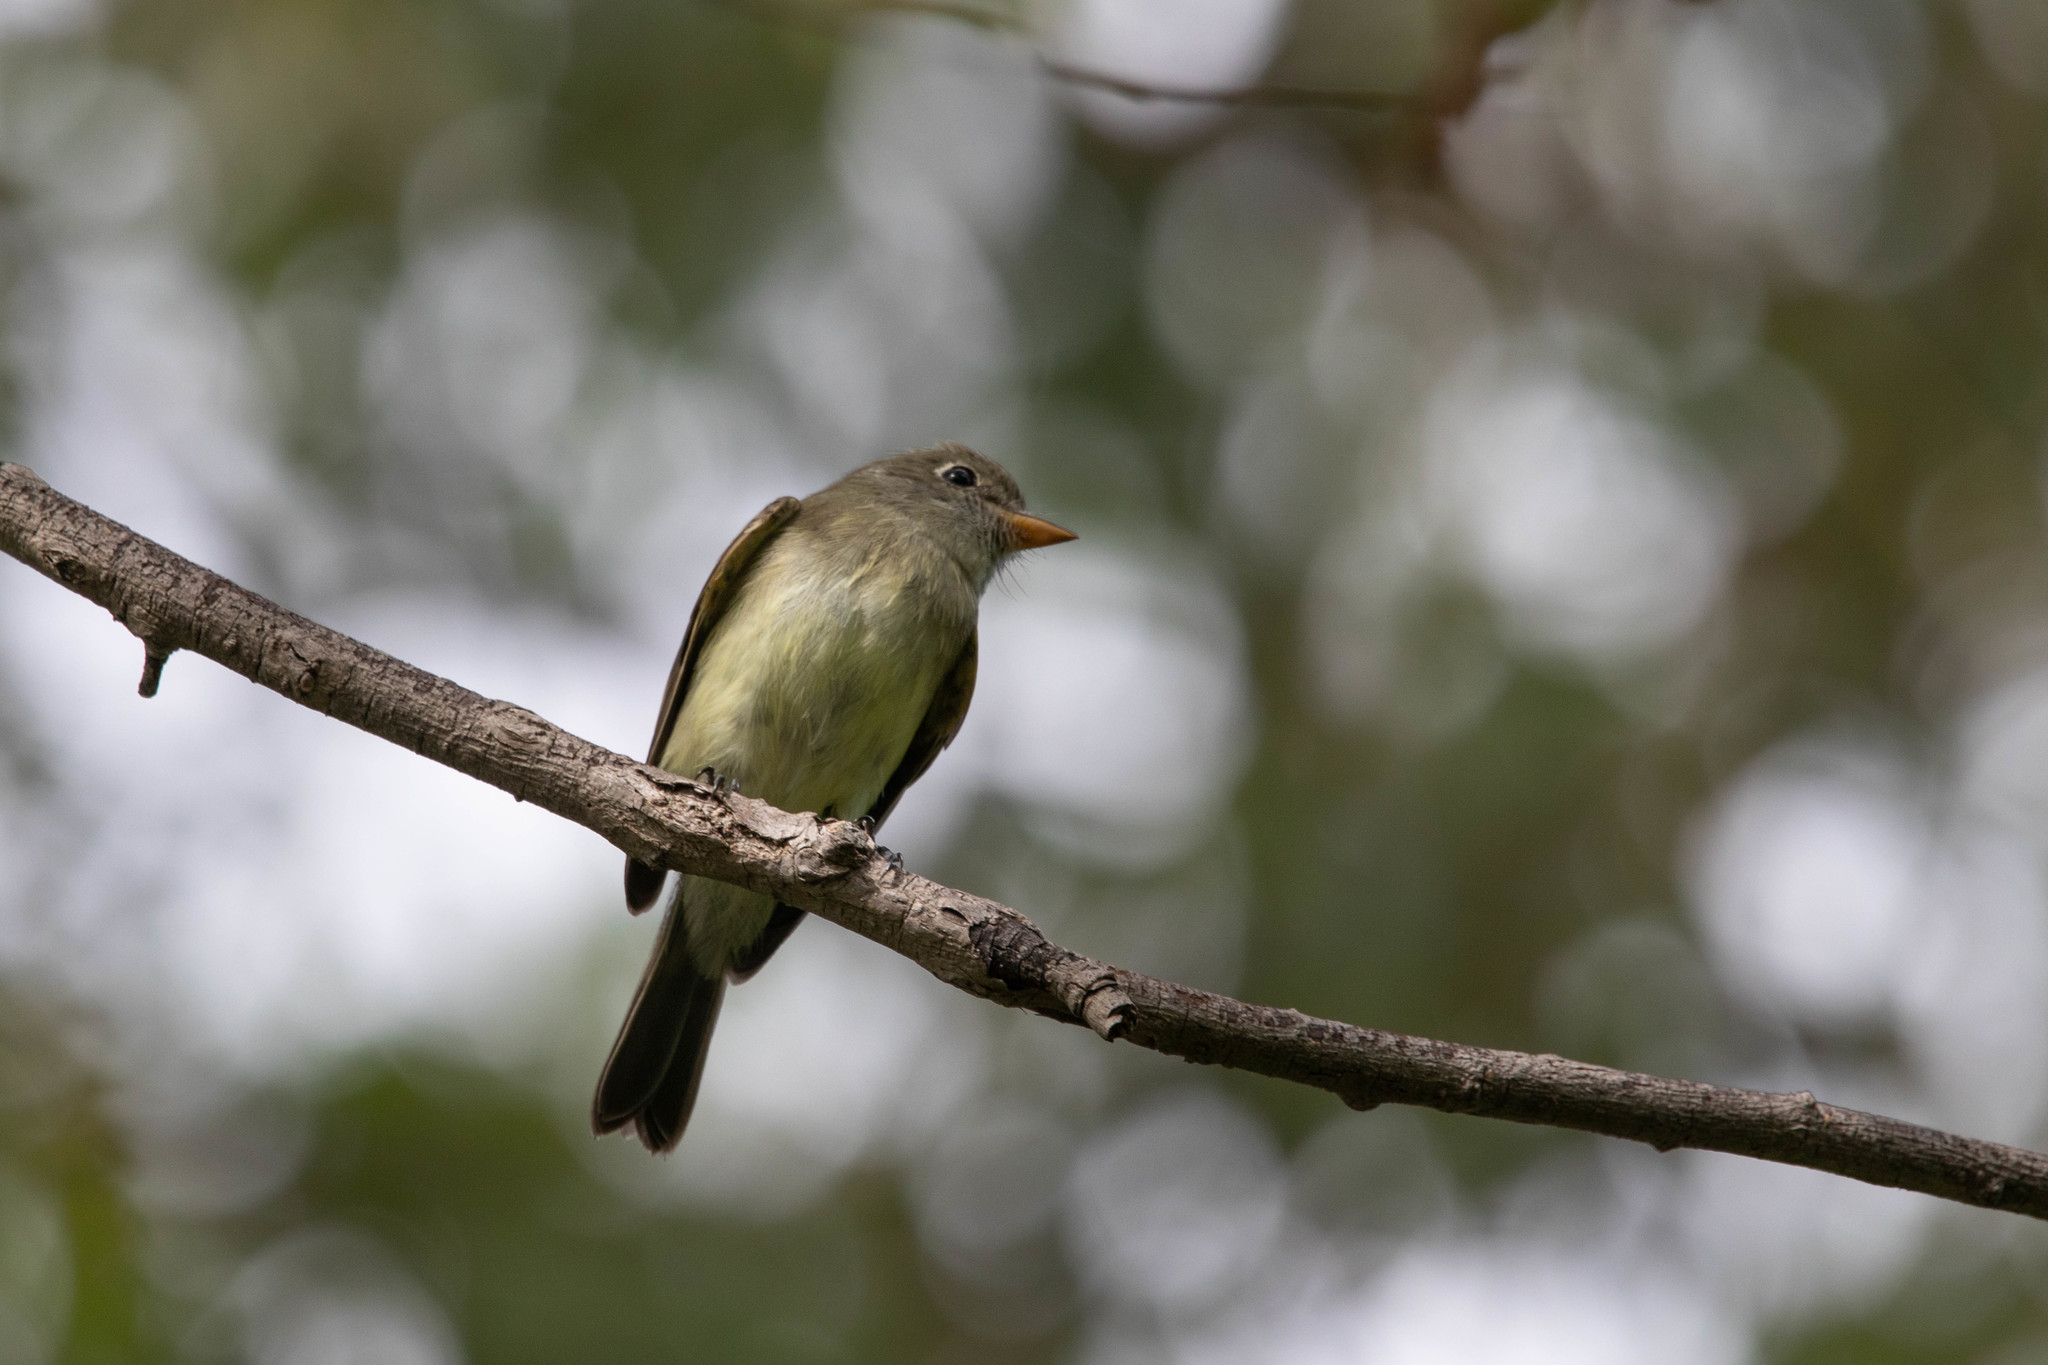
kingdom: Animalia
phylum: Chordata
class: Aves
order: Passeriformes
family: Tyrannidae
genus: Empidonax
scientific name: Empidonax minimus
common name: Least flycatcher
